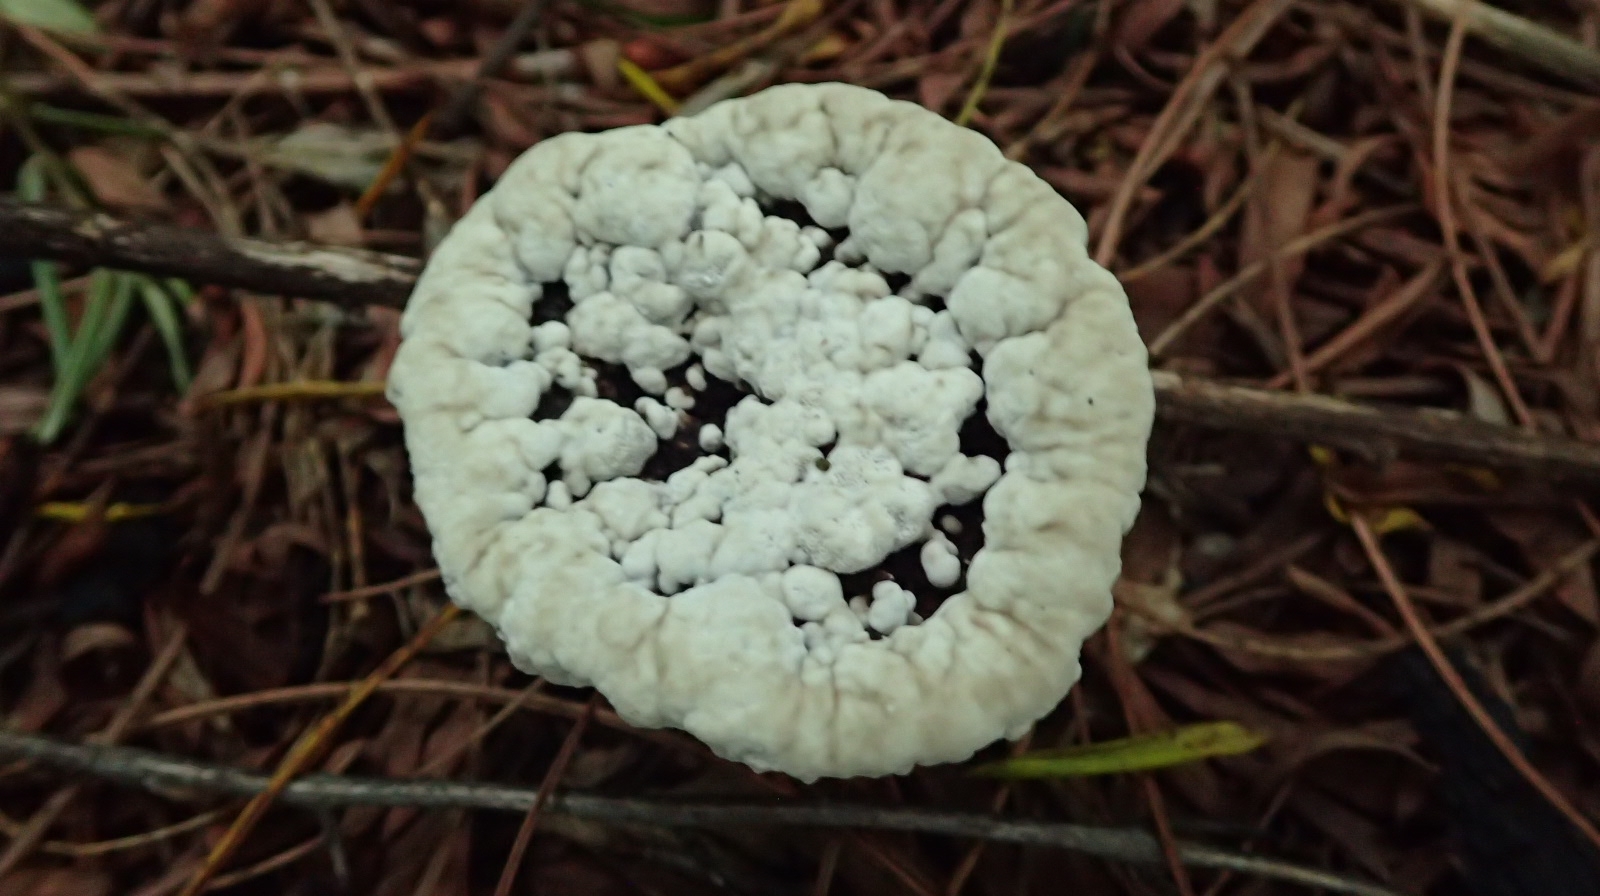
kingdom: Fungi
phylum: Basidiomycota
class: Agaricomycetes
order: Polyporales
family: Panaceae
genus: Cymatoderma
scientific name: Cymatoderma elegans
